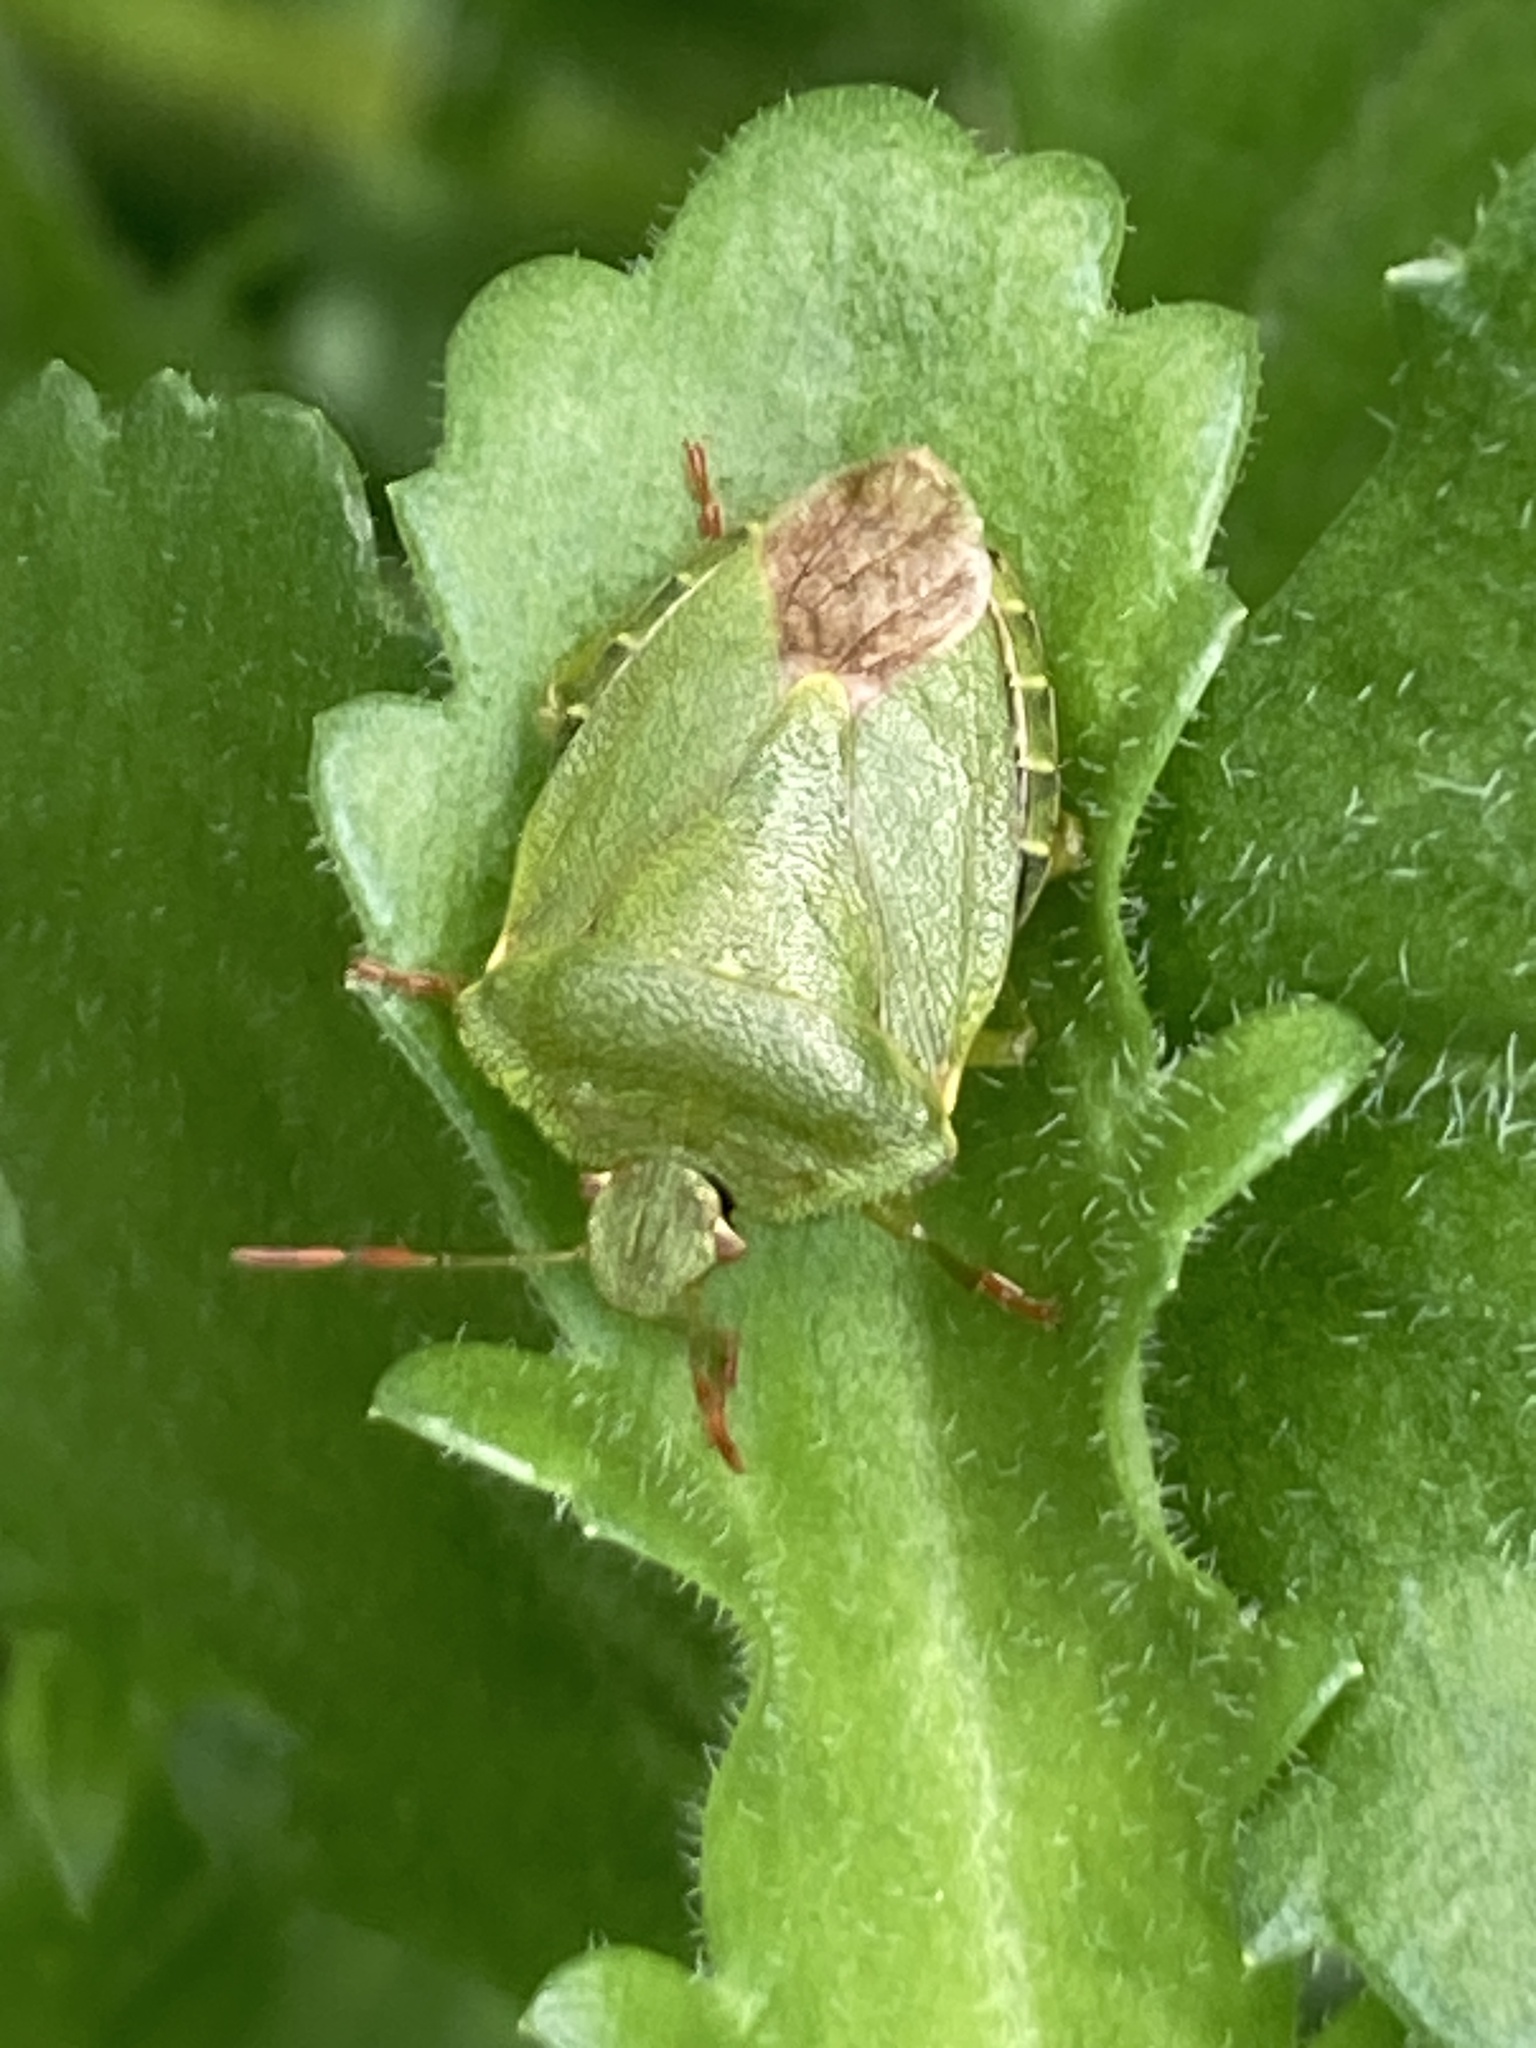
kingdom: Animalia
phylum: Arthropoda
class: Insecta
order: Hemiptera
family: Pentatomidae
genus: Palomena
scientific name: Palomena prasina
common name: Green shieldbug
